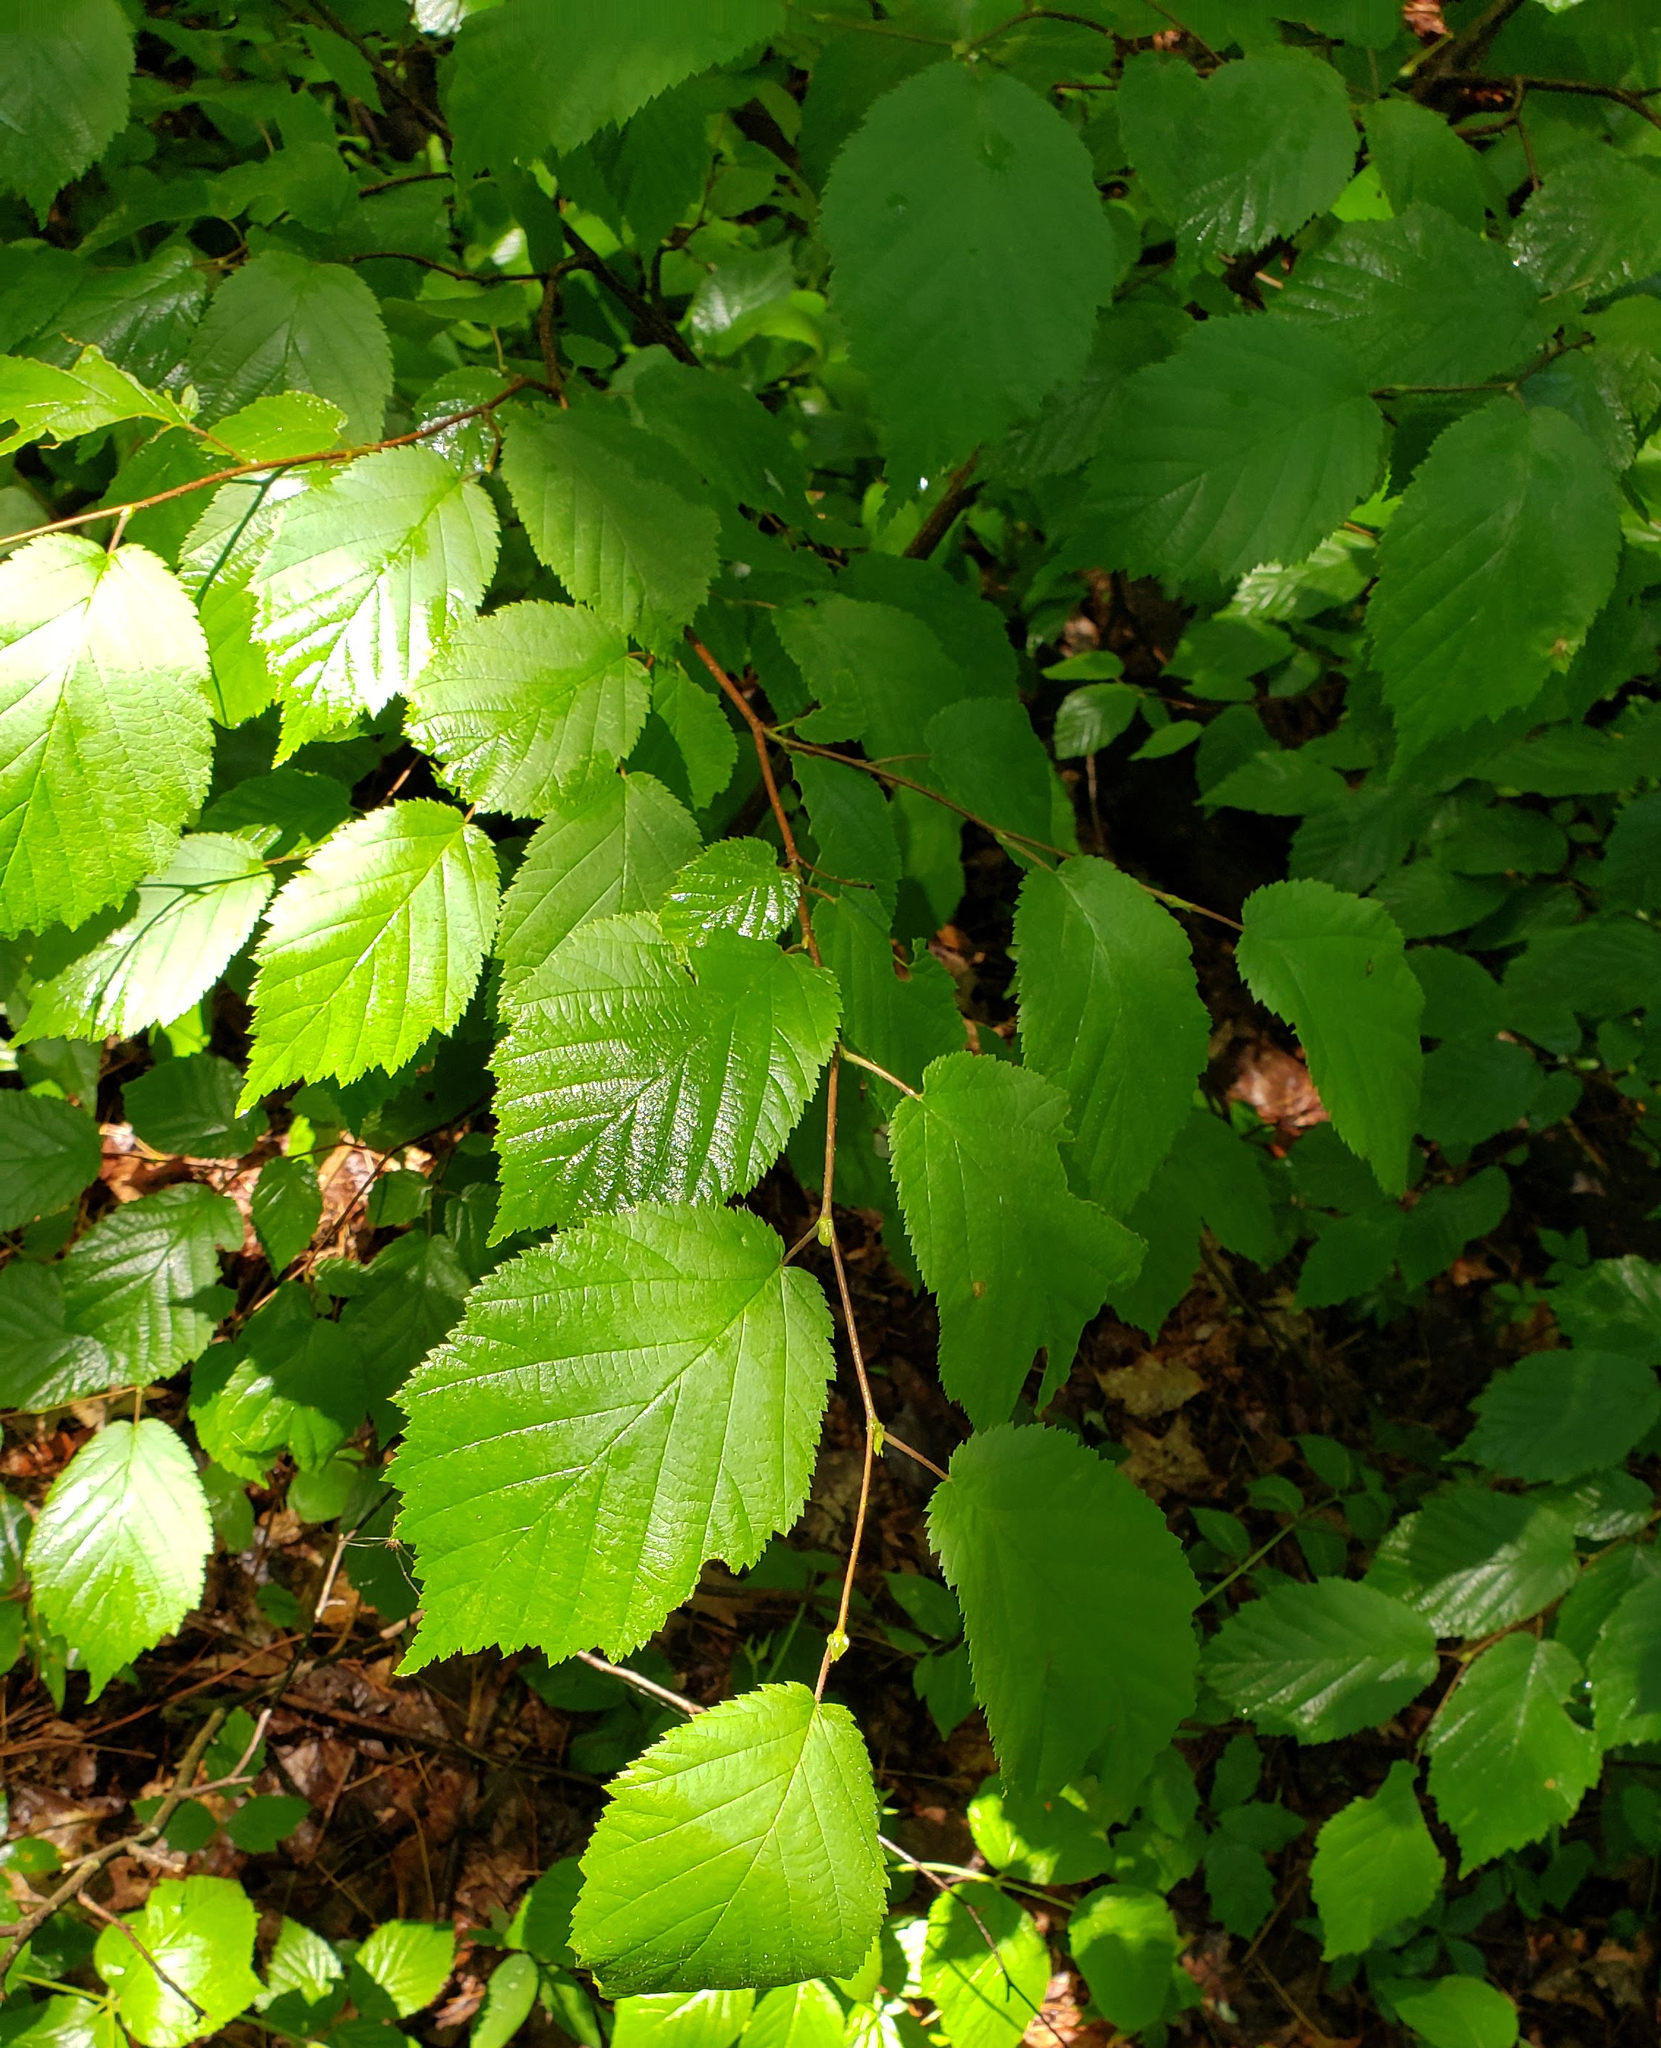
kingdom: Plantae
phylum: Tracheophyta
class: Magnoliopsida
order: Fagales
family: Betulaceae
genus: Corylus
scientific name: Corylus cornuta
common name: Beaked hazel
